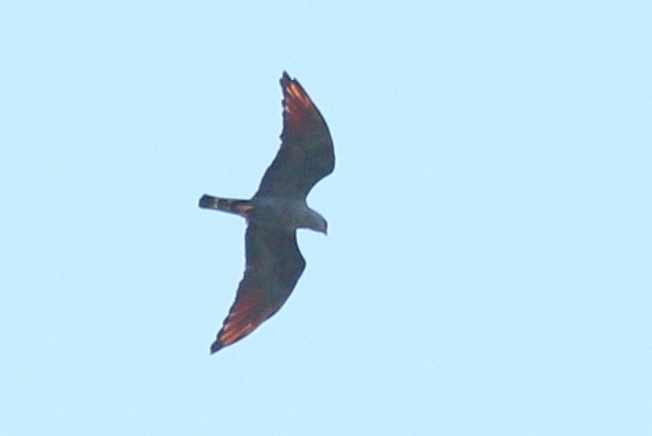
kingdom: Animalia
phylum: Chordata
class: Aves
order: Accipitriformes
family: Accipitridae
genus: Ictinia
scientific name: Ictinia plumbea
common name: Plumbeous kite
